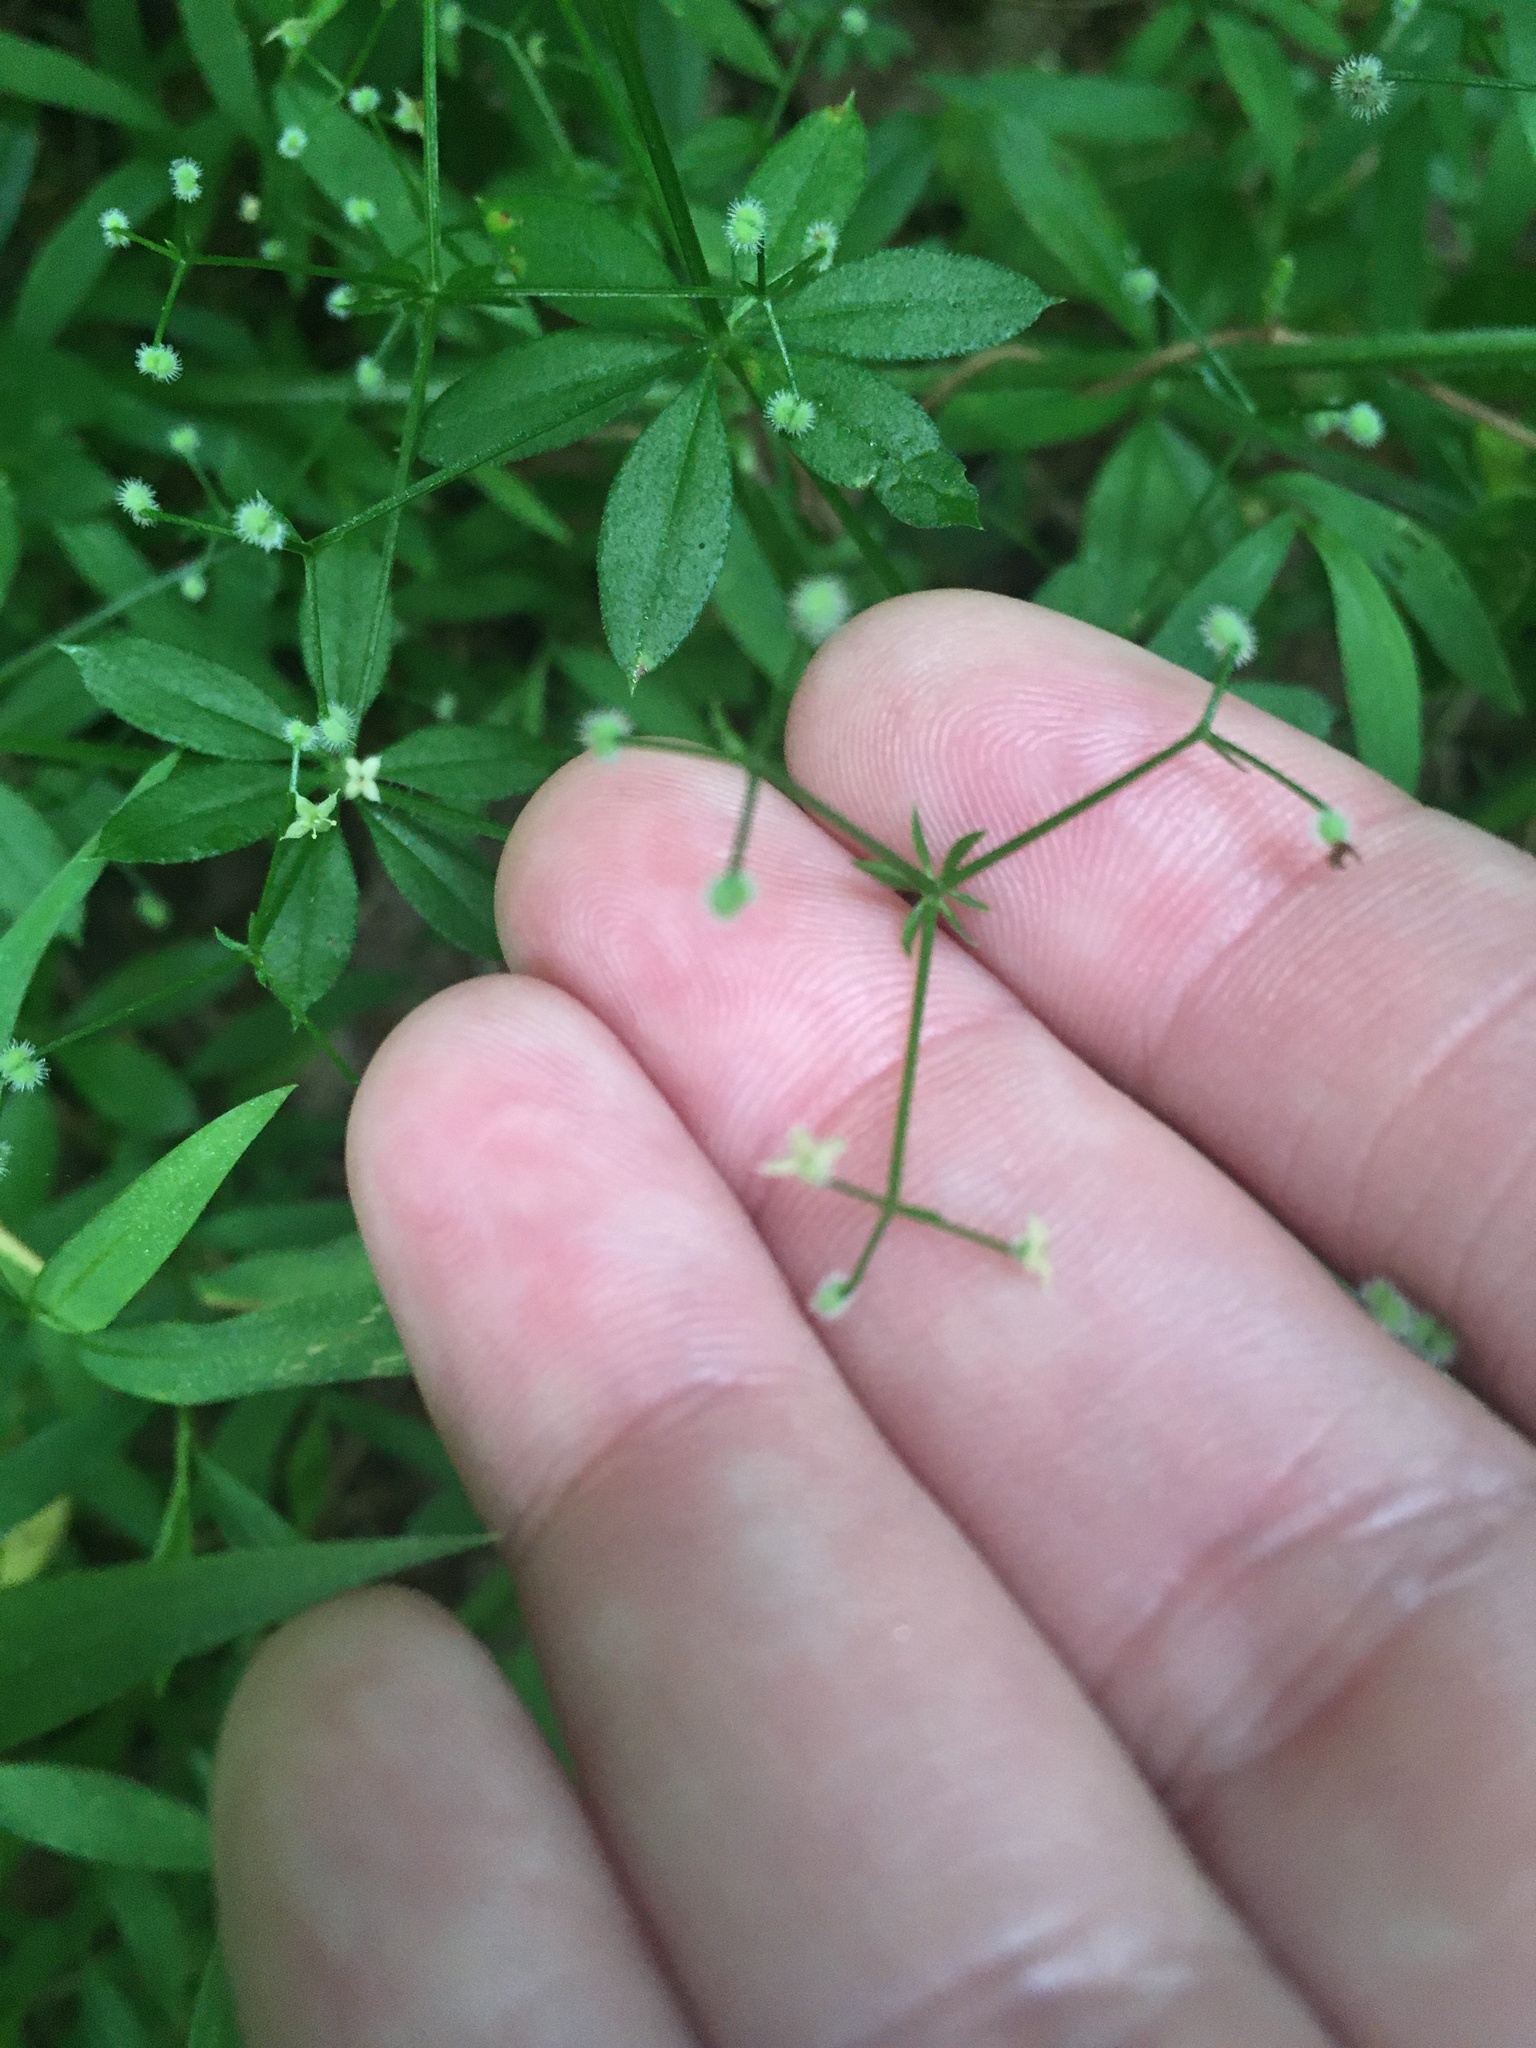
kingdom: Plantae
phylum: Tracheophyta
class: Magnoliopsida
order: Gentianales
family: Rubiaceae
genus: Galium
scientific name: Galium triflorum
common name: Fragrant bedstraw
